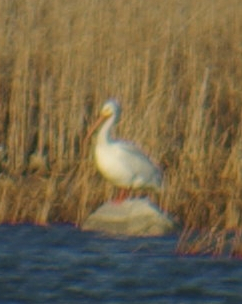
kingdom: Animalia
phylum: Chordata
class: Aves
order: Pelecaniformes
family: Pelecanidae
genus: Pelecanus
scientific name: Pelecanus erythrorhynchos
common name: American white pelican
